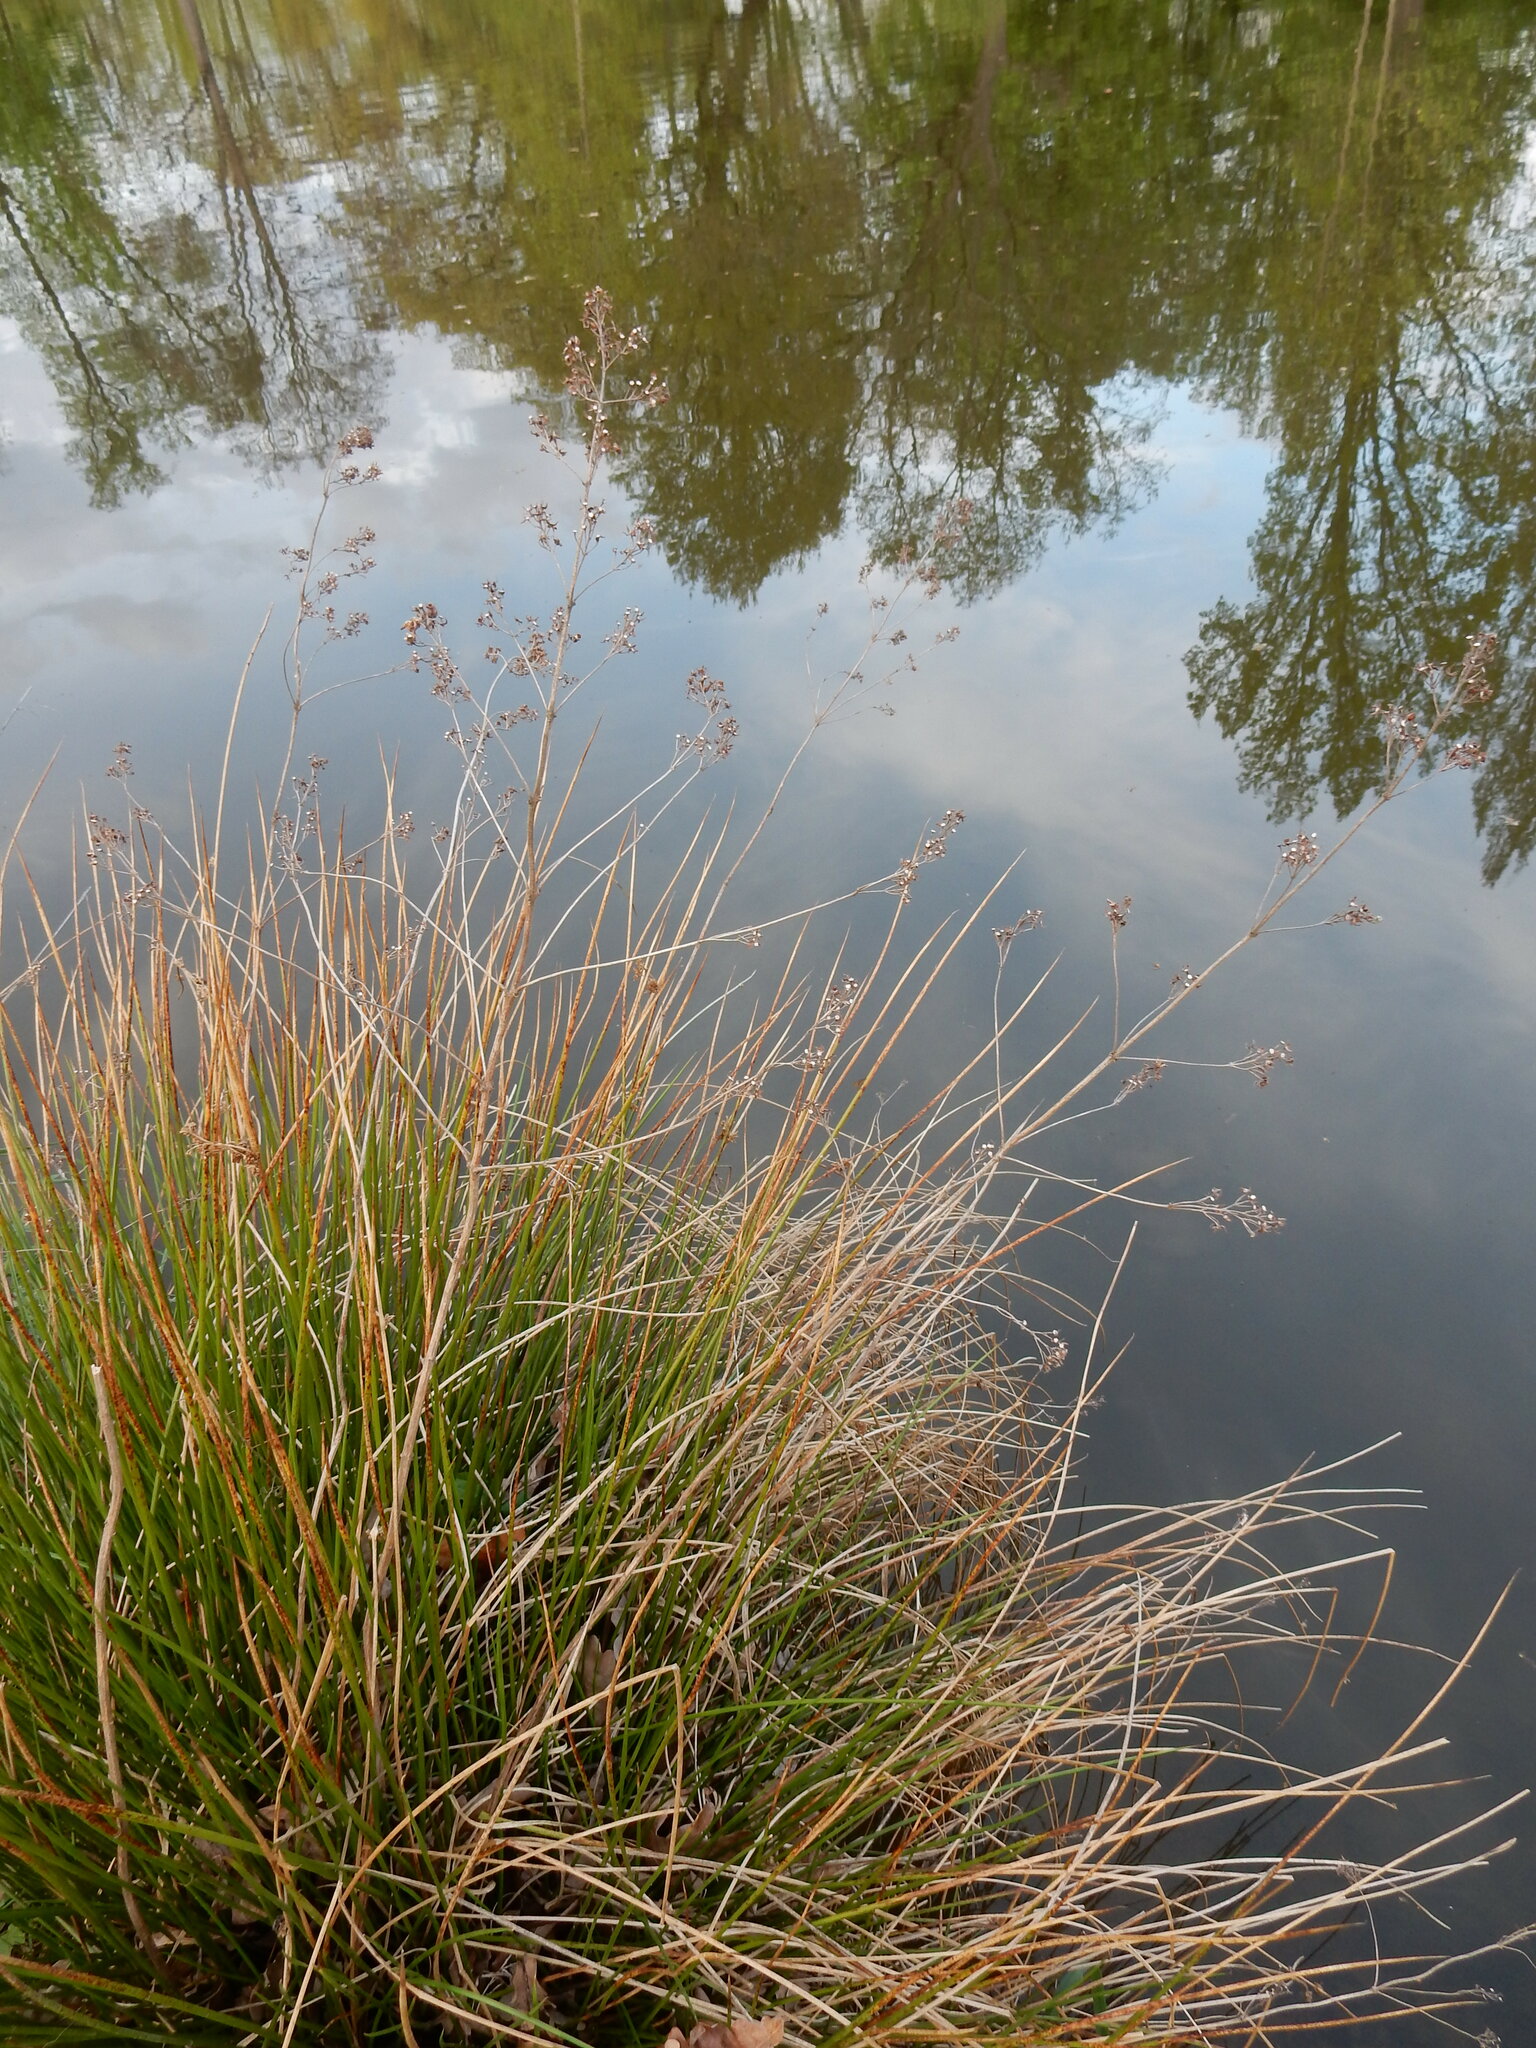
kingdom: Plantae
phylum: Tracheophyta
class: Liliopsida
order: Poales
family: Juncaceae
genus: Juncus
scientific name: Juncus effusus
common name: Soft rush
